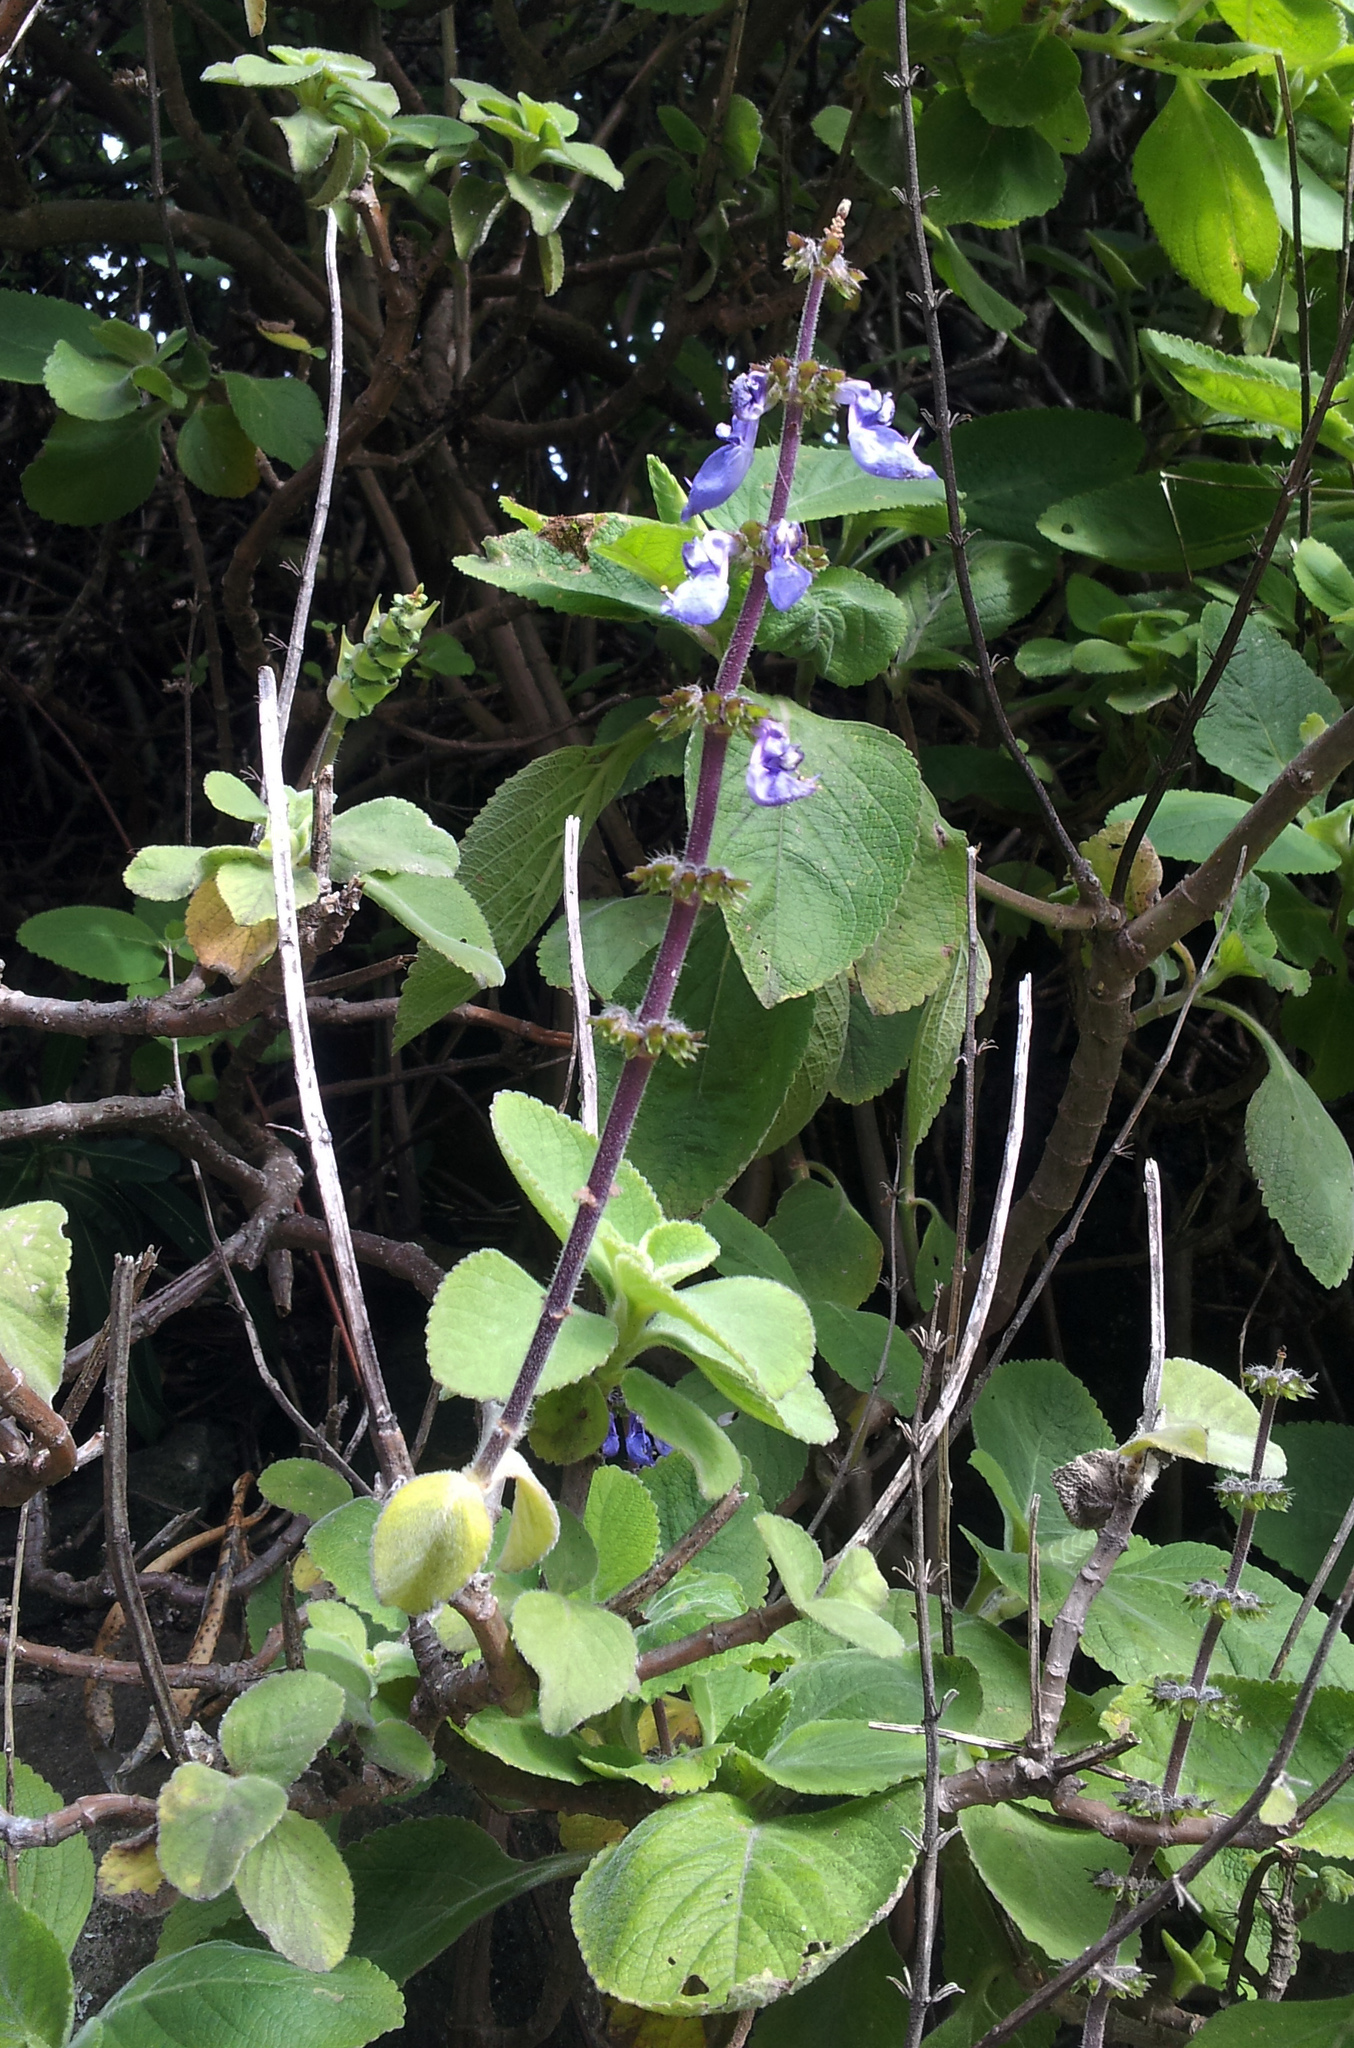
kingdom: Plantae
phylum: Tracheophyta
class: Magnoliopsida
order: Lamiales
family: Lamiaceae
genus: Coleus
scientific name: Coleus barbatus
